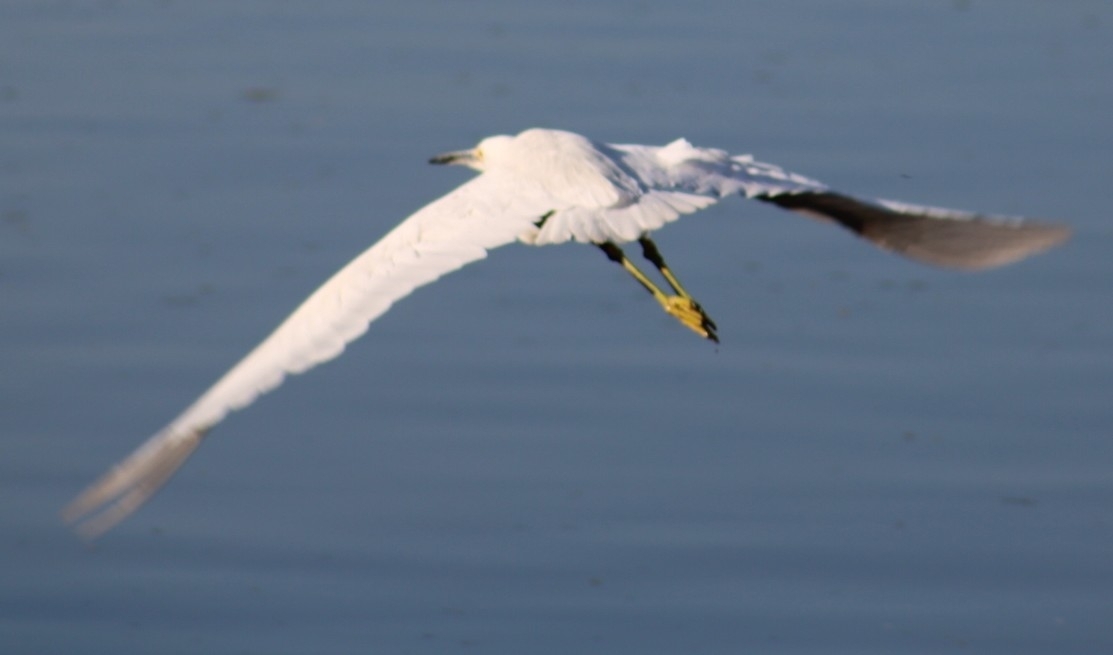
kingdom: Animalia
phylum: Chordata
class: Aves
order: Pelecaniformes
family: Ardeidae
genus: Egretta
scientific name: Egretta thula
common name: Snowy egret
